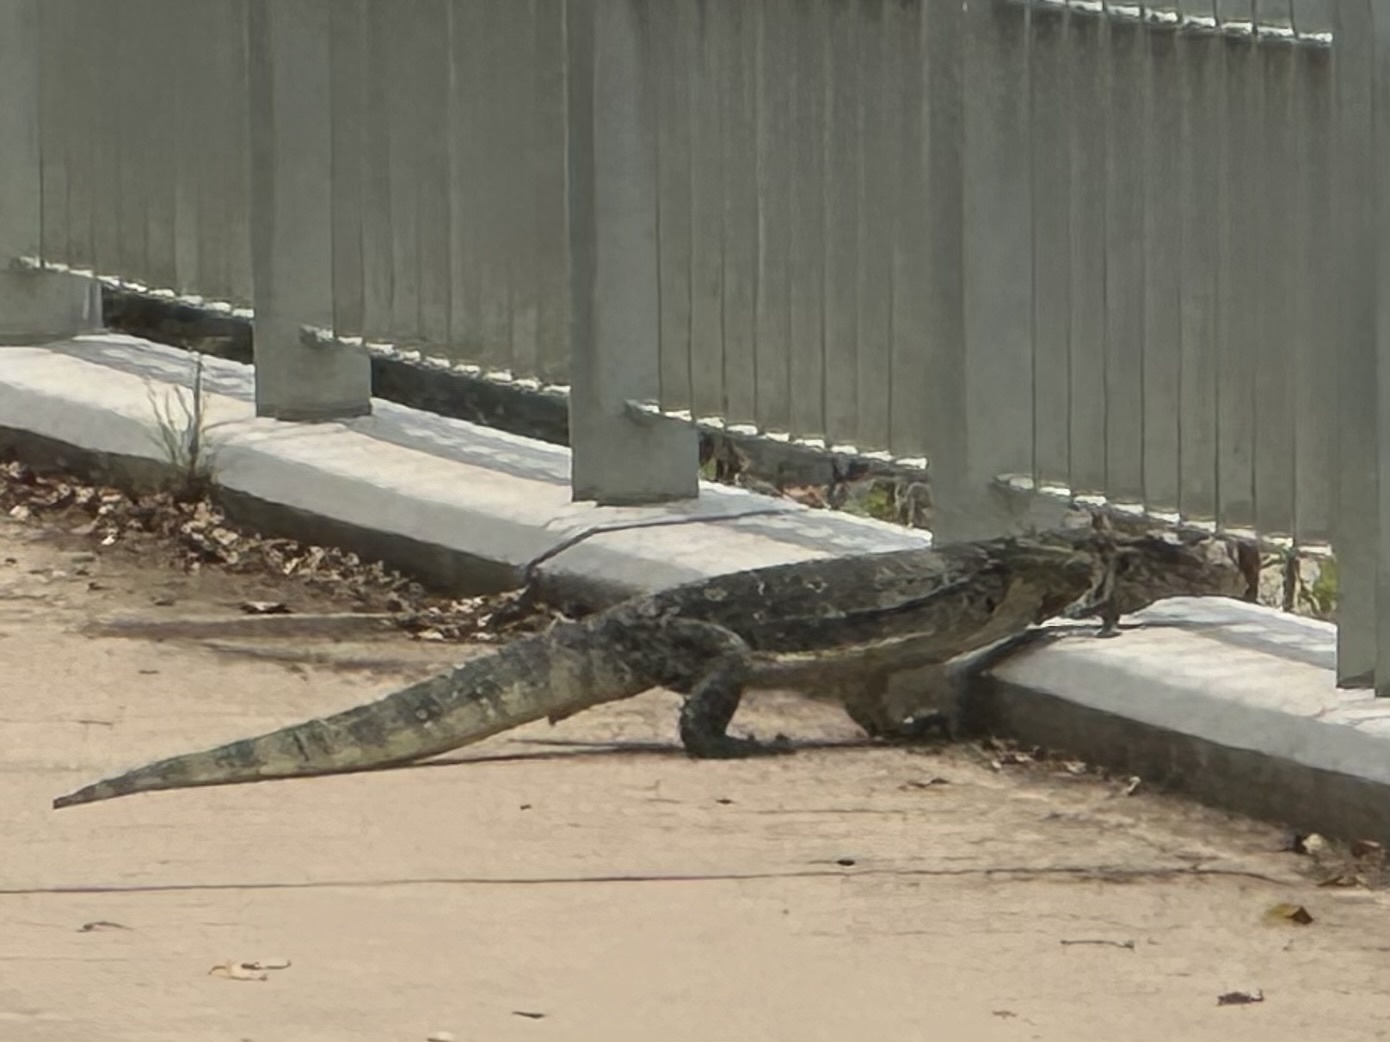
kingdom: Animalia
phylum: Chordata
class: Squamata
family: Varanidae
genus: Varanus
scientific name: Varanus salvator
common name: Common water monitor
